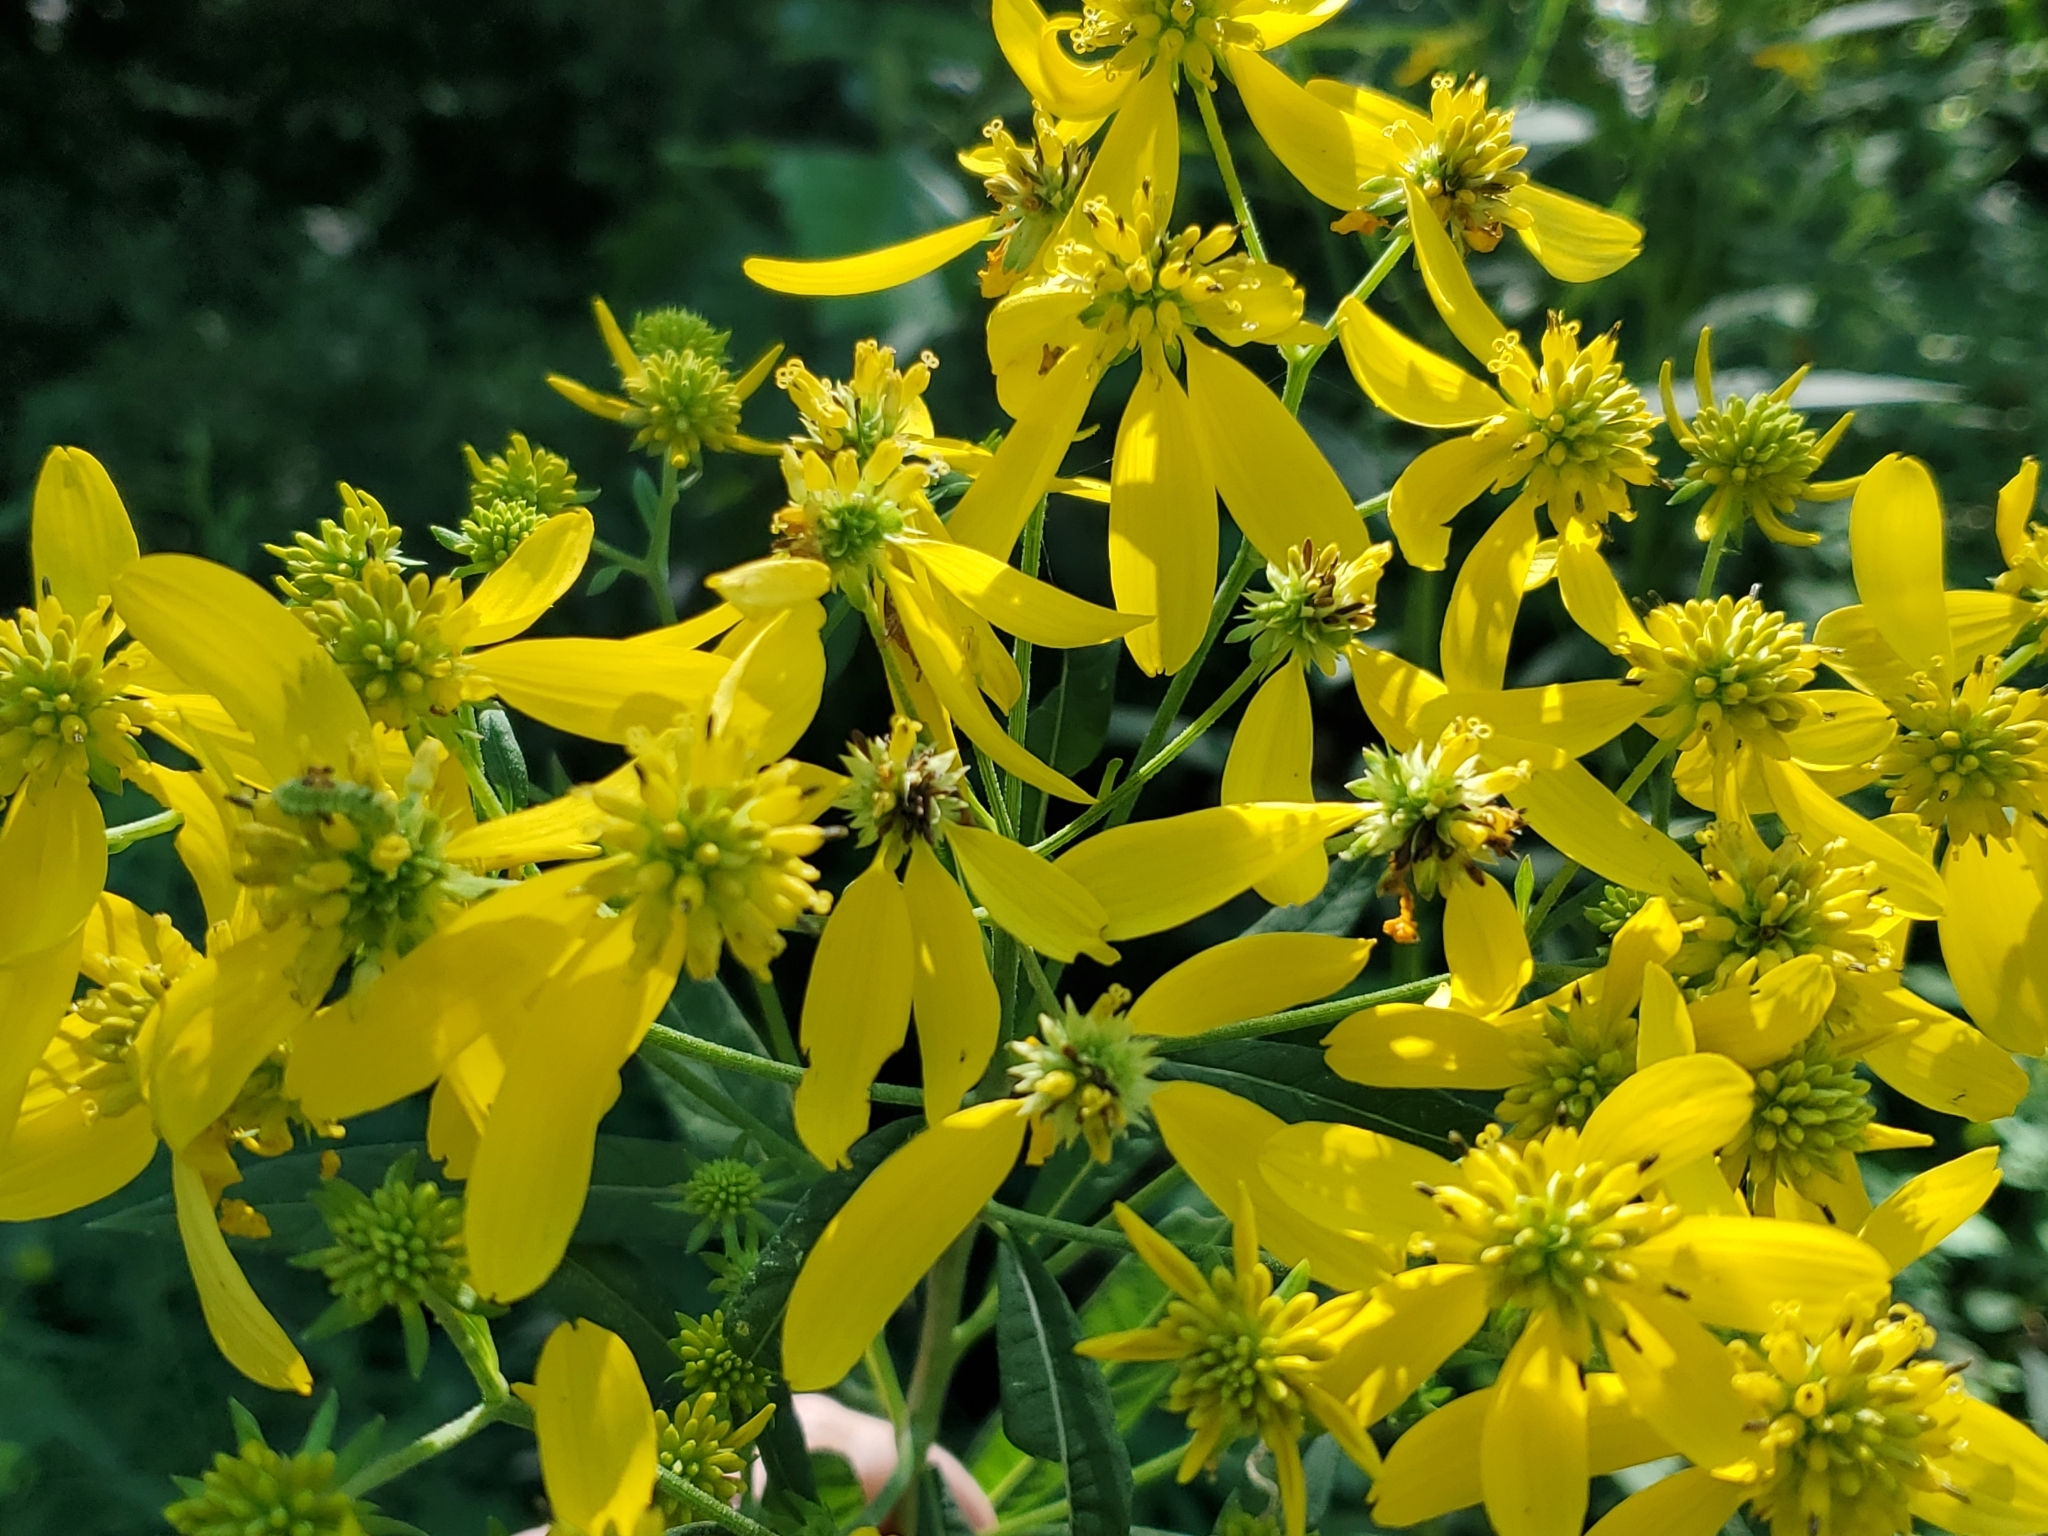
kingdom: Plantae
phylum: Tracheophyta
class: Magnoliopsida
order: Asterales
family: Asteraceae
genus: Verbesina
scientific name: Verbesina alternifolia
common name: Wingstem
